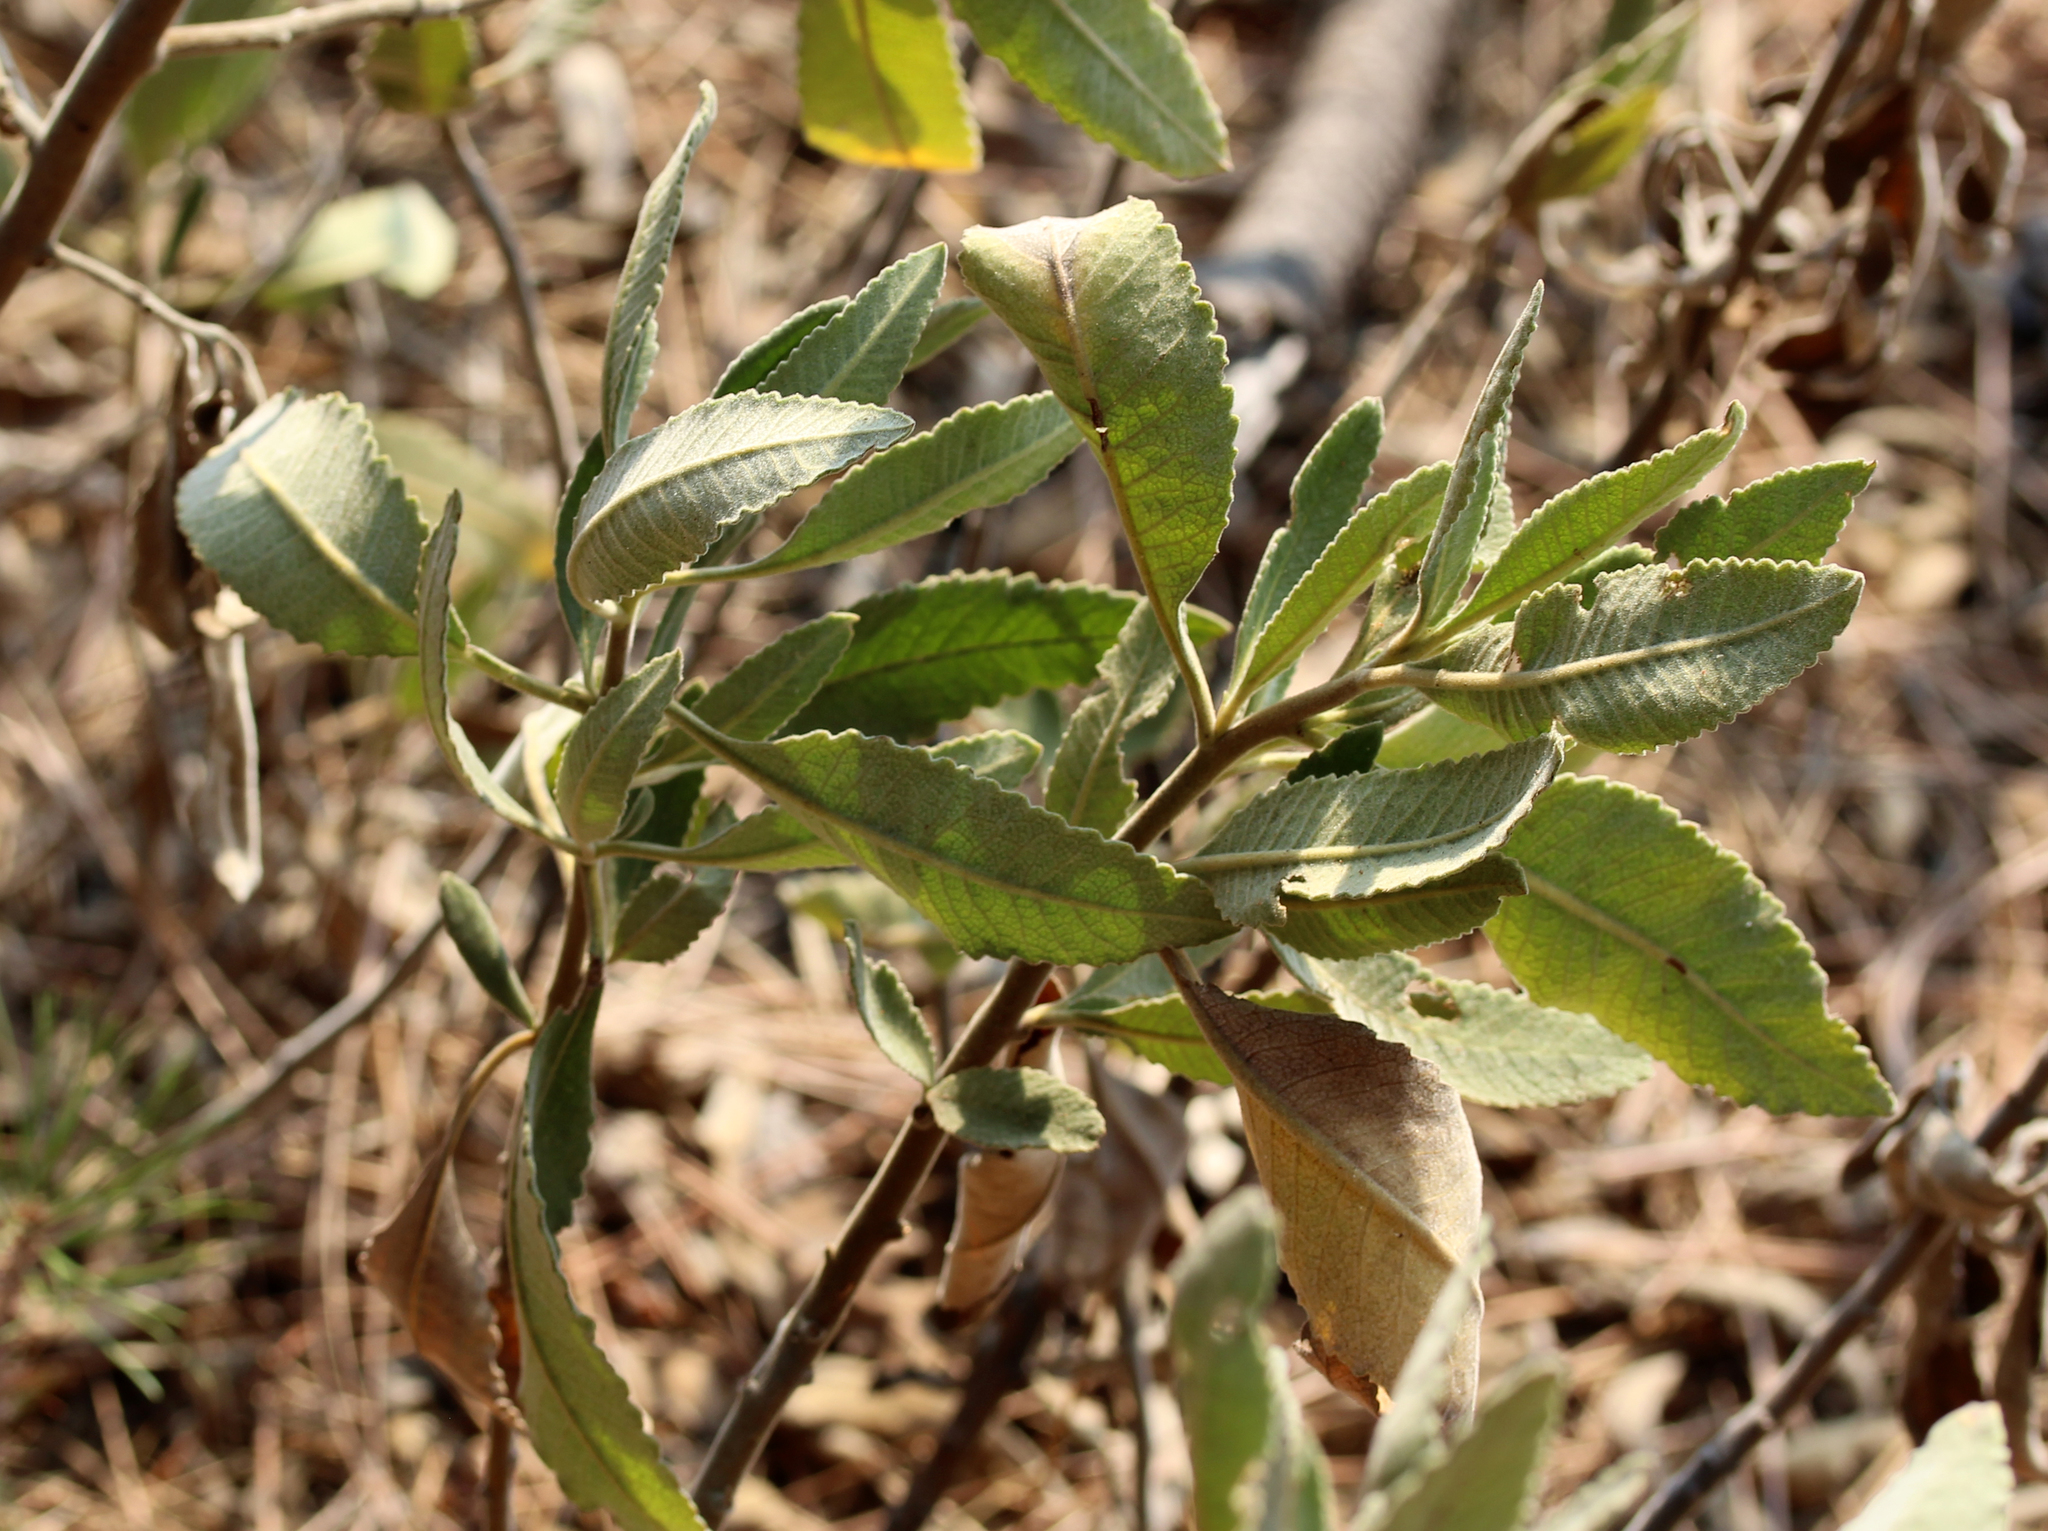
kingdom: Plantae
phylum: Tracheophyta
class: Magnoliopsida
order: Boraginales
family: Namaceae
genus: Eriodictyon
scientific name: Eriodictyon crassifolium
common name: Thick-leaf yerba-santa
